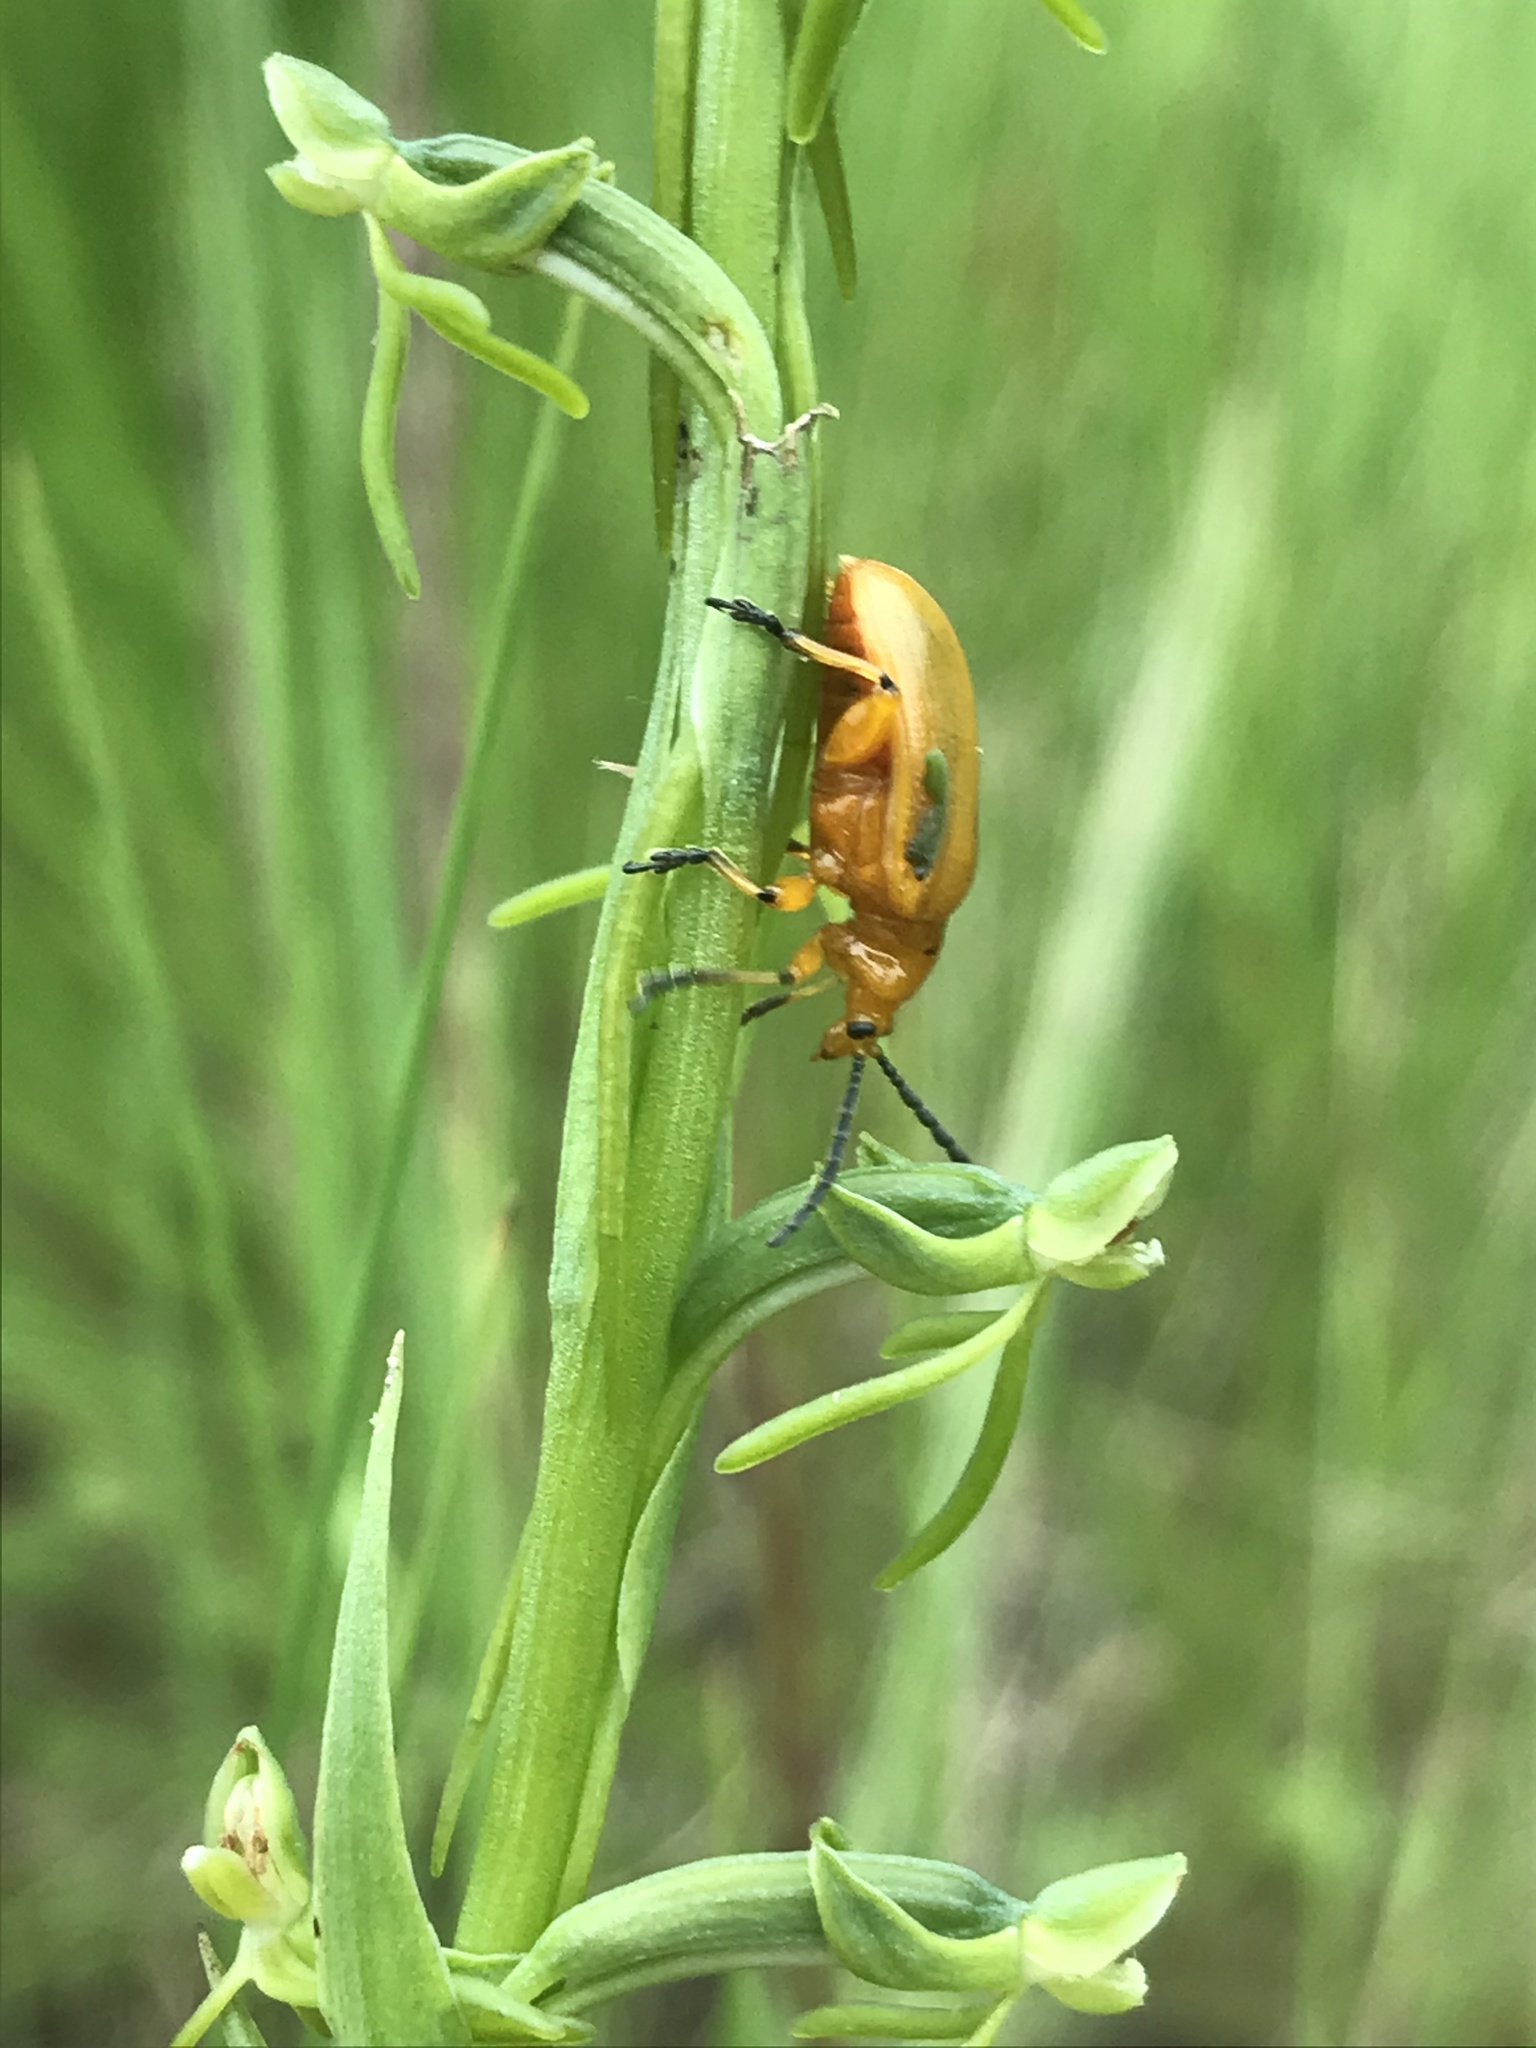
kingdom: Animalia
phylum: Arthropoda
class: Insecta
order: Coleoptera
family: Chrysomelidae
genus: Lema
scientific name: Lema
